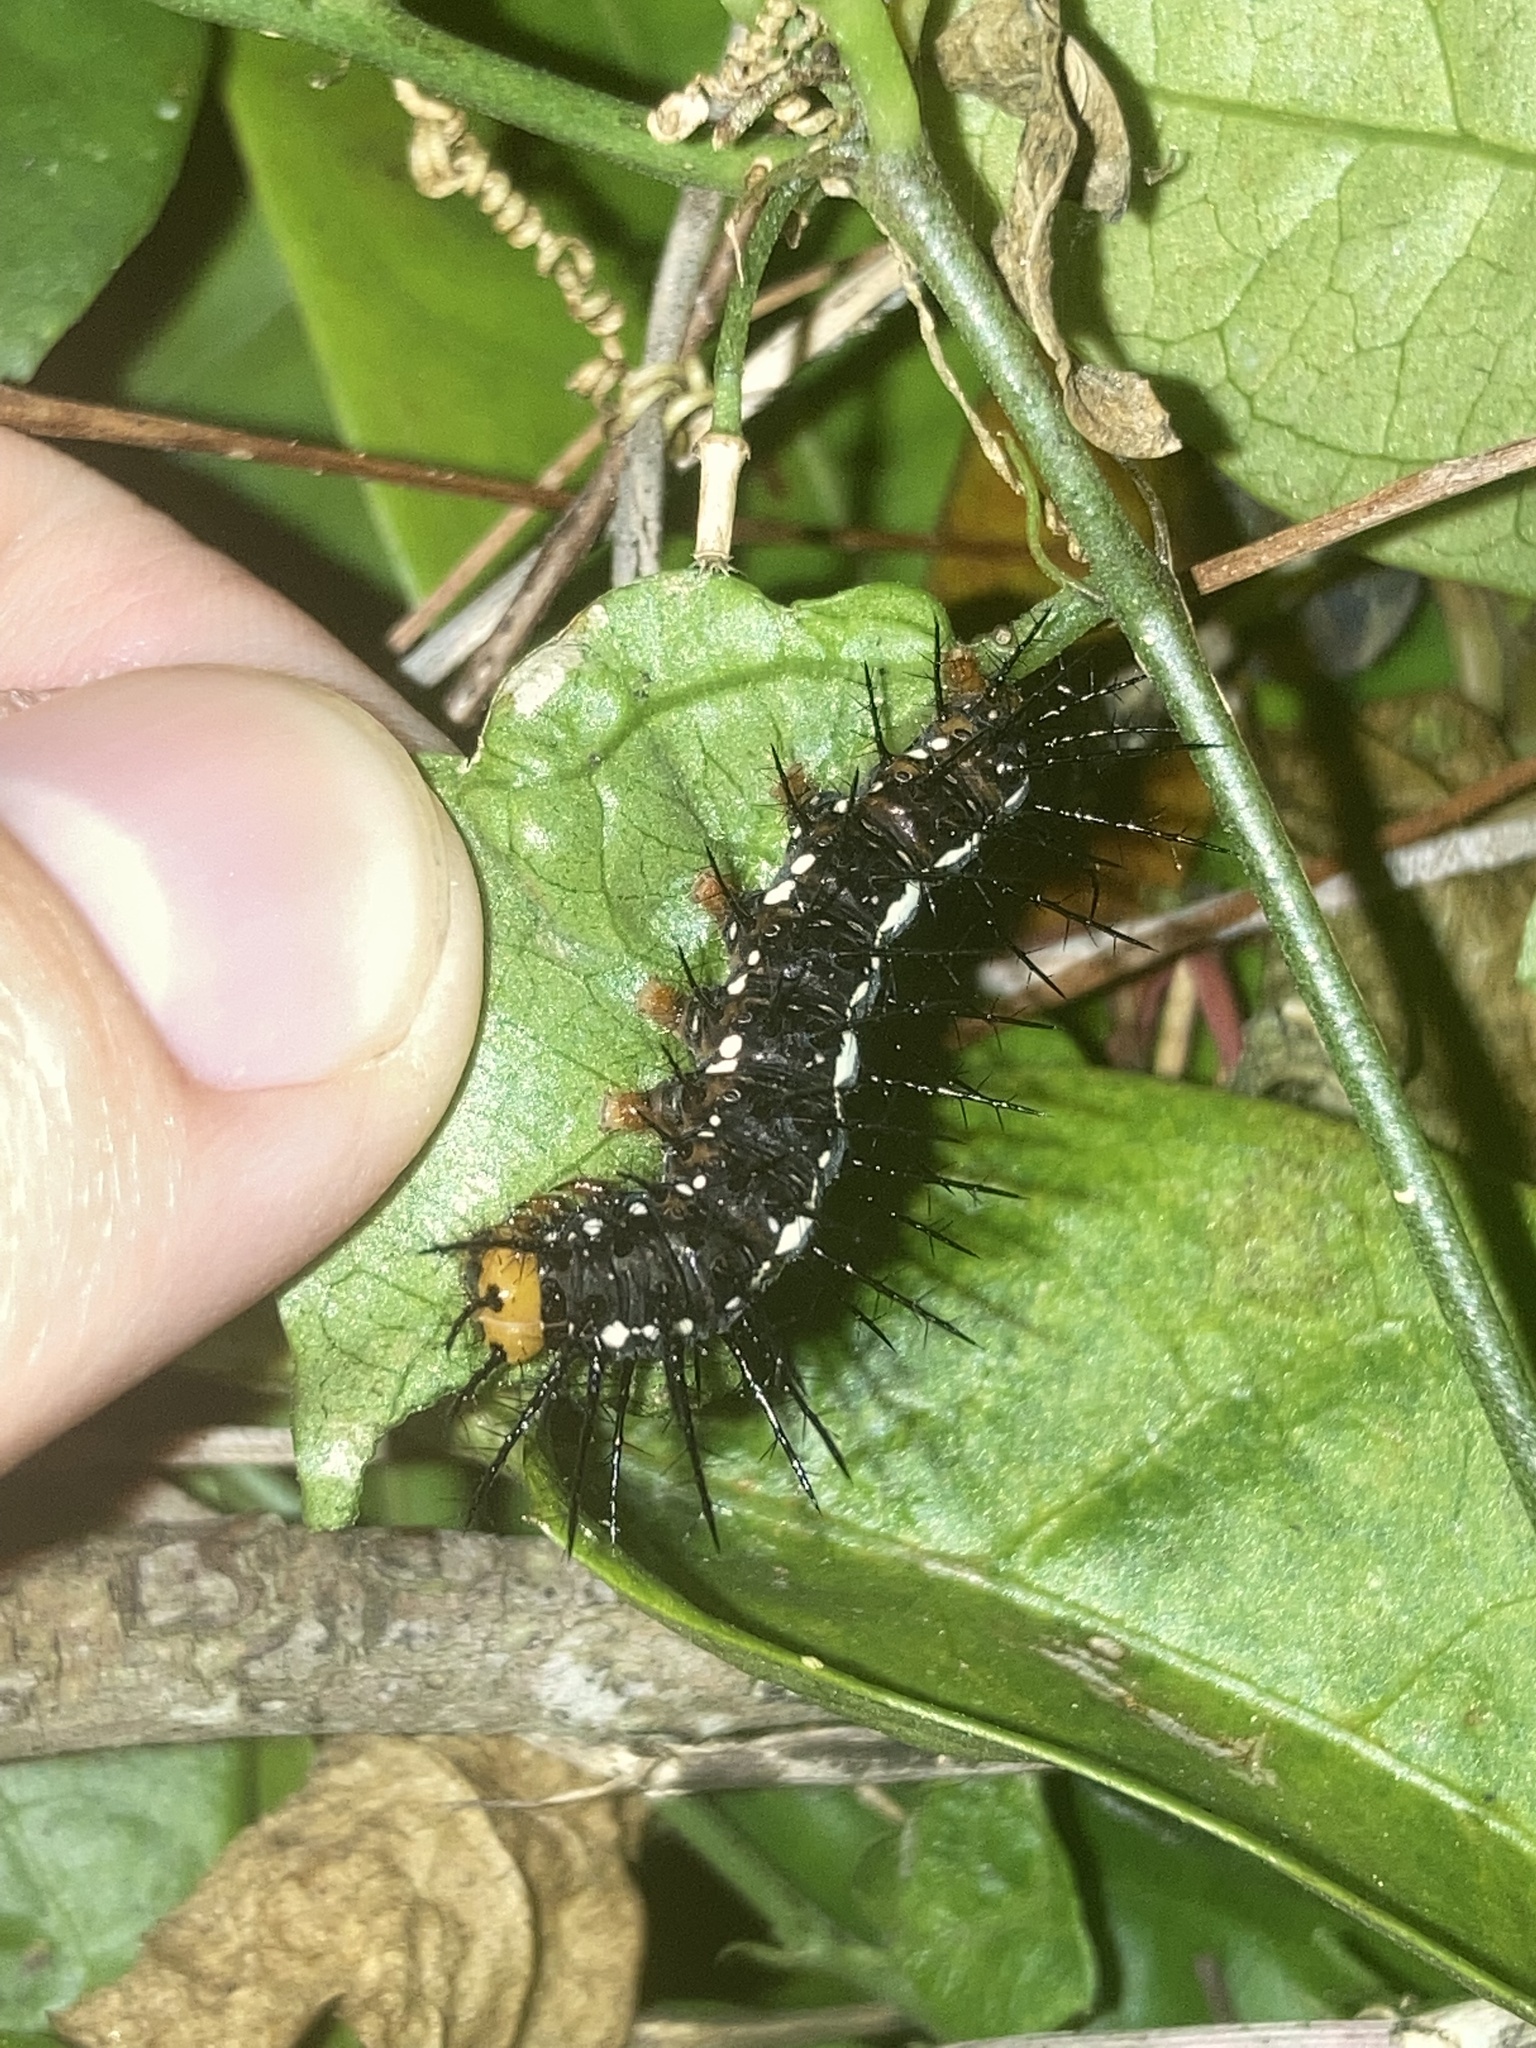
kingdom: Animalia
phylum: Arthropoda
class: Insecta
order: Lepidoptera
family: Nymphalidae
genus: Dryas
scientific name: Dryas iulia
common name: Flambeau
